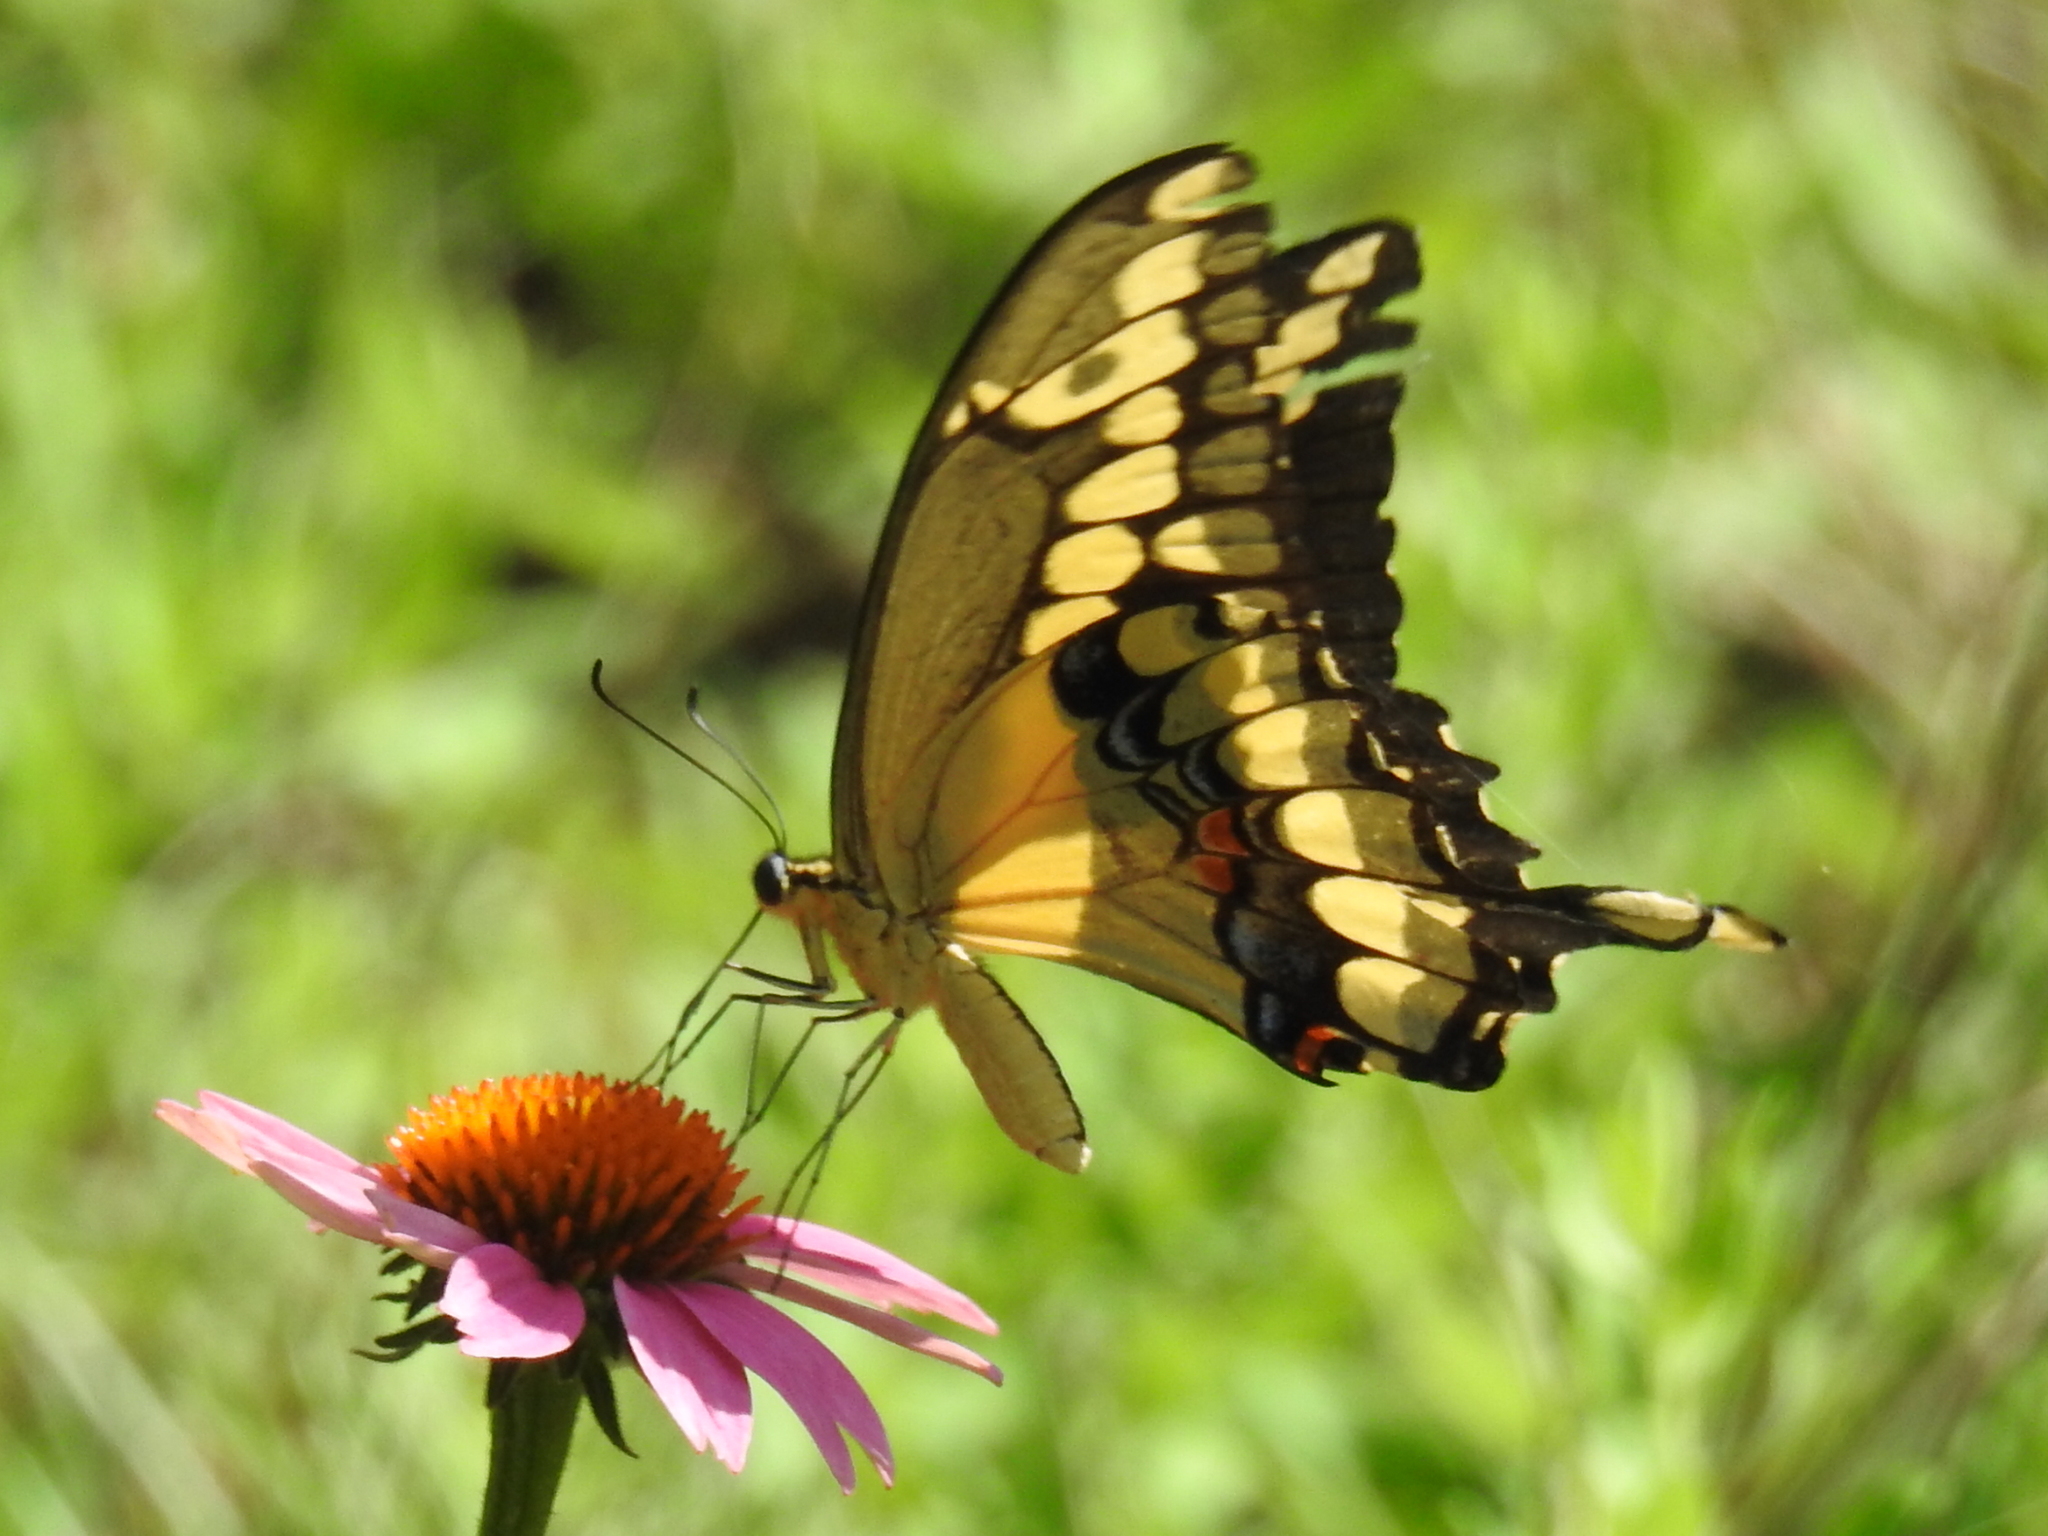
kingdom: Animalia
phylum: Arthropoda
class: Insecta
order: Lepidoptera
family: Papilionidae
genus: Papilio
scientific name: Papilio cresphontes
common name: Giant swallowtail
